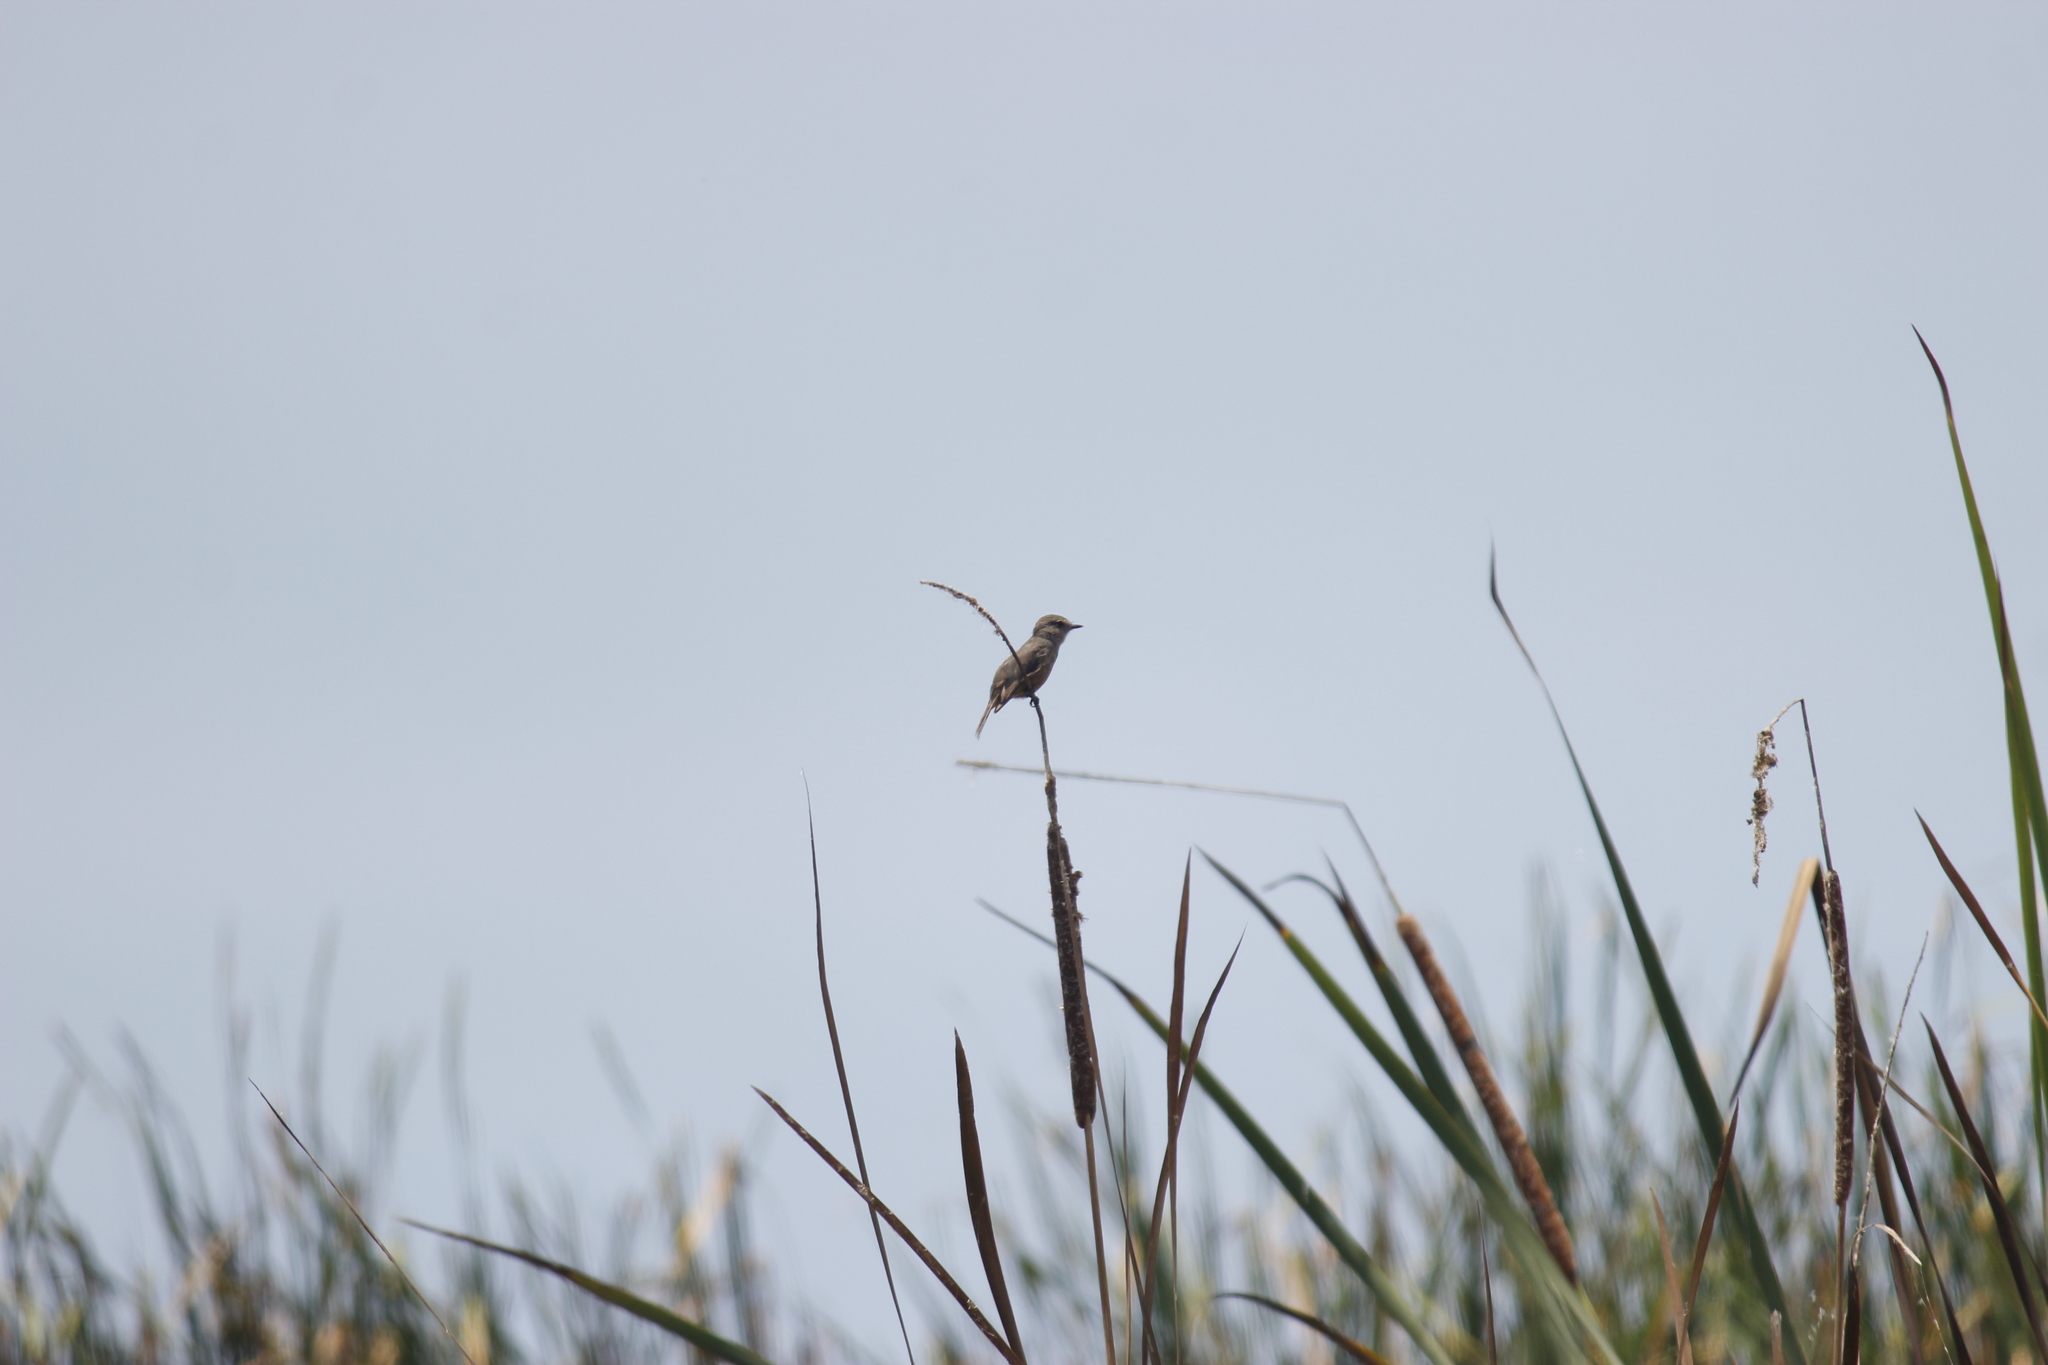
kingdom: Animalia
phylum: Chordata
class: Aves
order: Passeriformes
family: Tyrannidae
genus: Pyrocephalus
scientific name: Pyrocephalus rubinus
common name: Vermilion flycatcher
